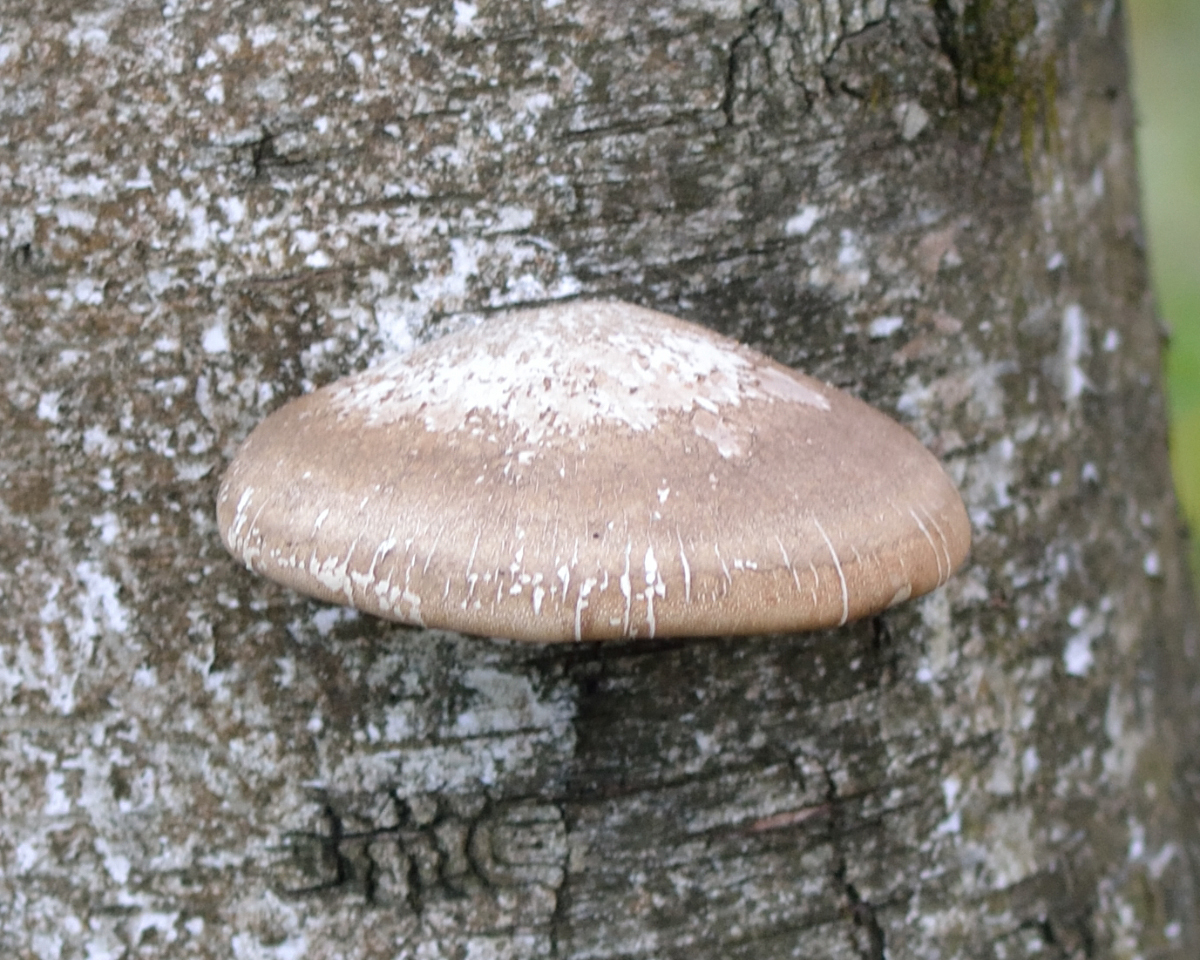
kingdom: Fungi
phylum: Basidiomycota
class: Agaricomycetes
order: Polyporales
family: Fomitopsidaceae
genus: Fomitopsis
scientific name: Fomitopsis betulina
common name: Birch polypore
